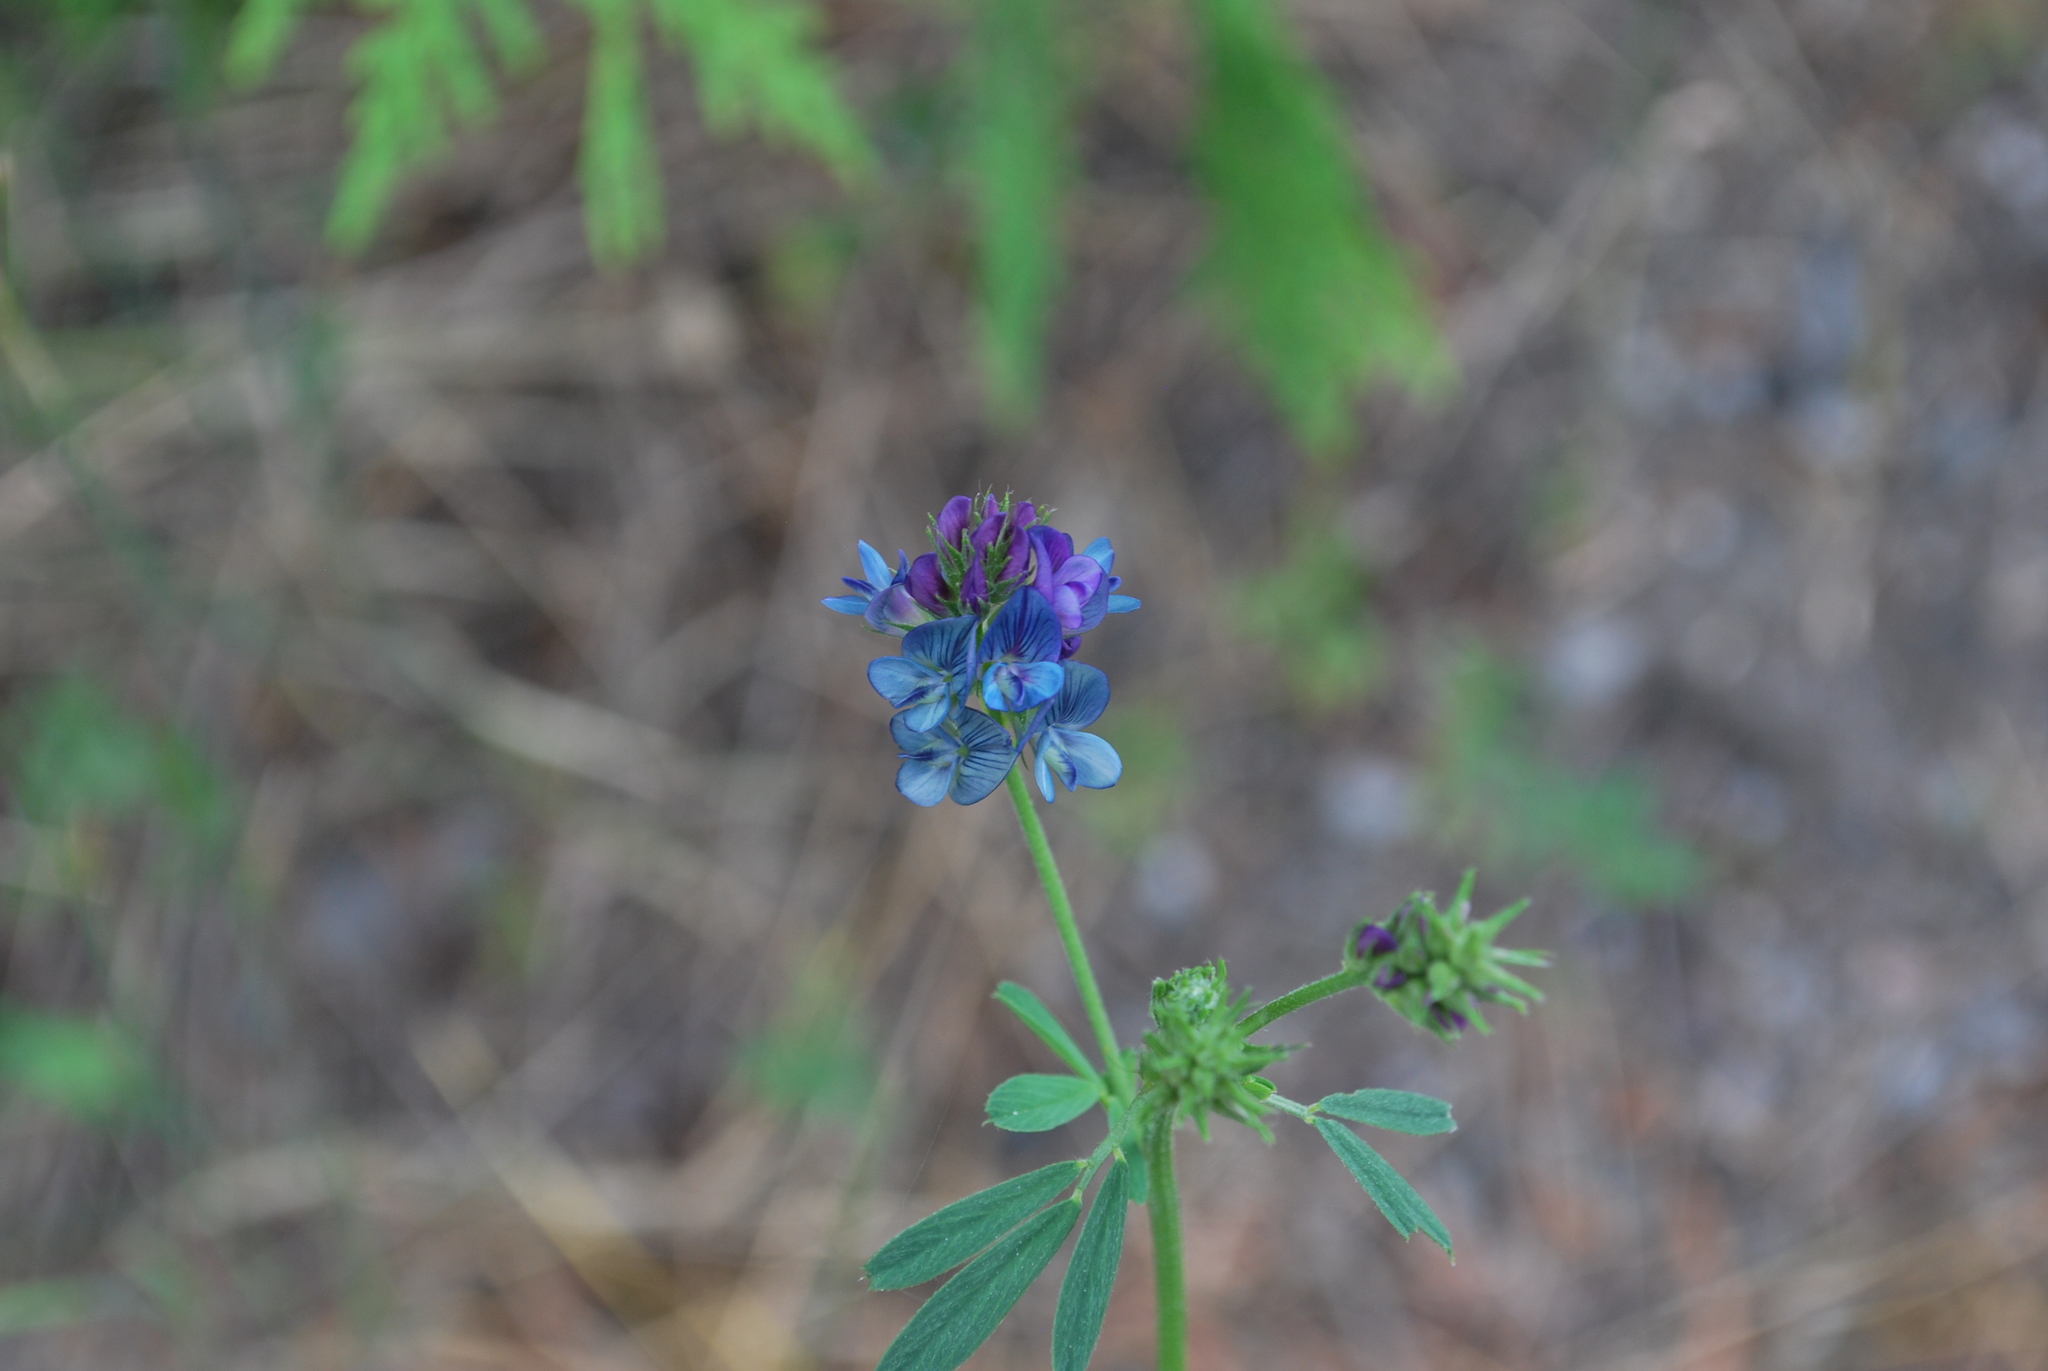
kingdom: Plantae
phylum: Tracheophyta
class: Magnoliopsida
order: Fabales
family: Fabaceae
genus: Medicago
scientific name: Medicago varia
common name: Sand lucerne
